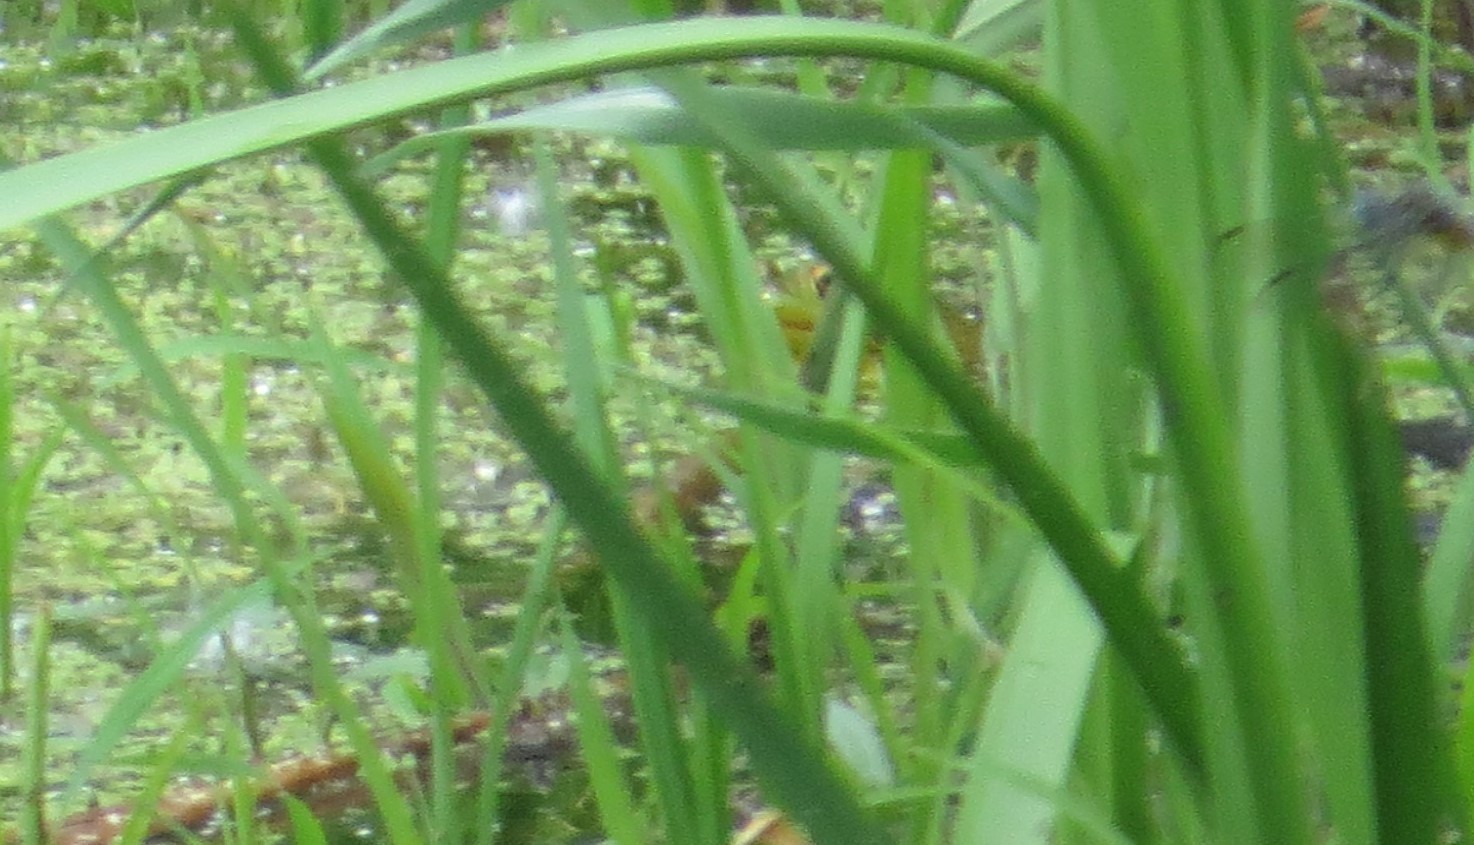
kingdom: Animalia
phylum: Chordata
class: Amphibia
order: Anura
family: Ranidae
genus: Lithobates
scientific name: Lithobates clamitans
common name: Green frog
